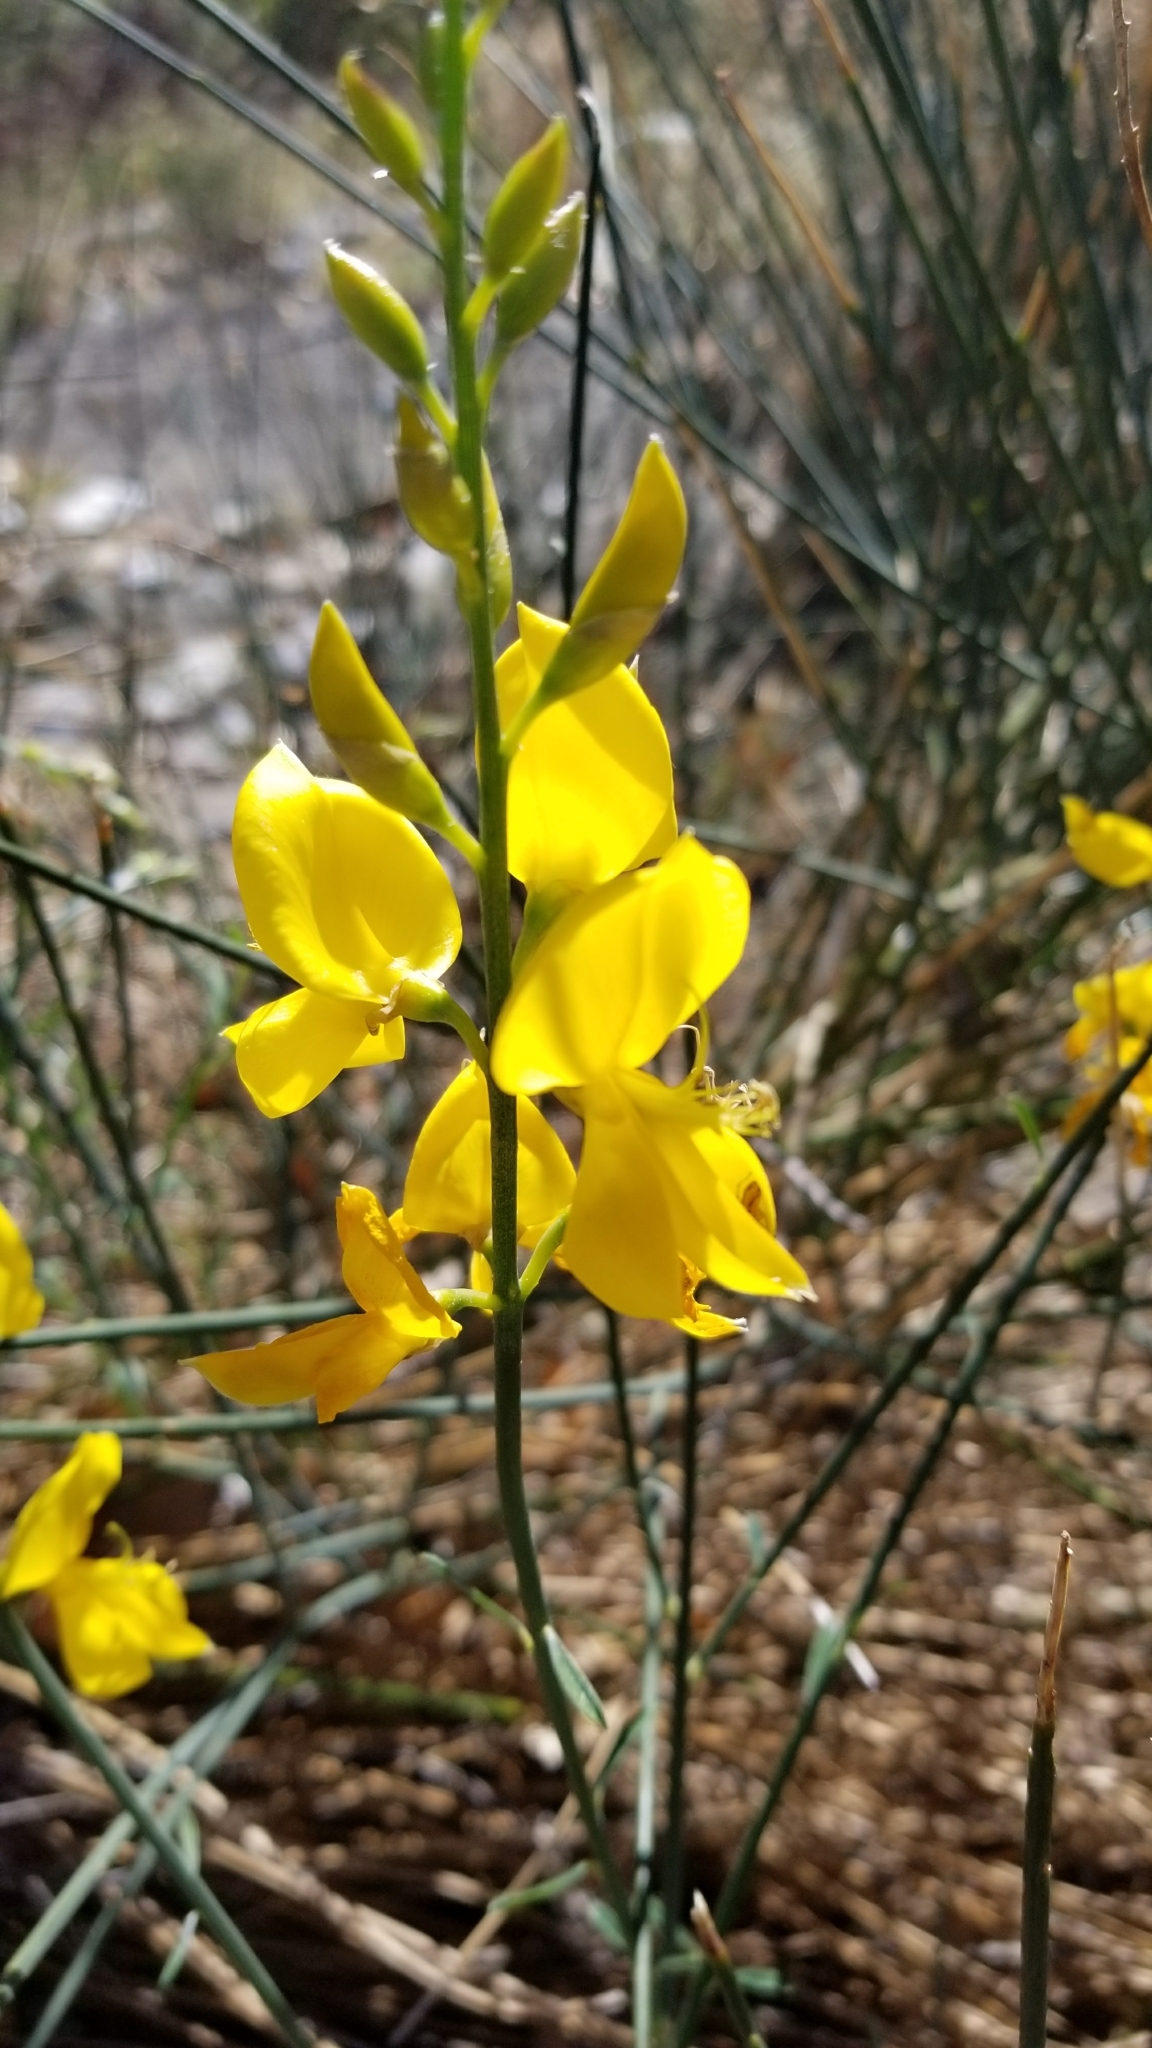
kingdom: Plantae
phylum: Tracheophyta
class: Magnoliopsida
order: Fabales
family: Fabaceae
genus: Spartium
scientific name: Spartium junceum
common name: Spanish broom
